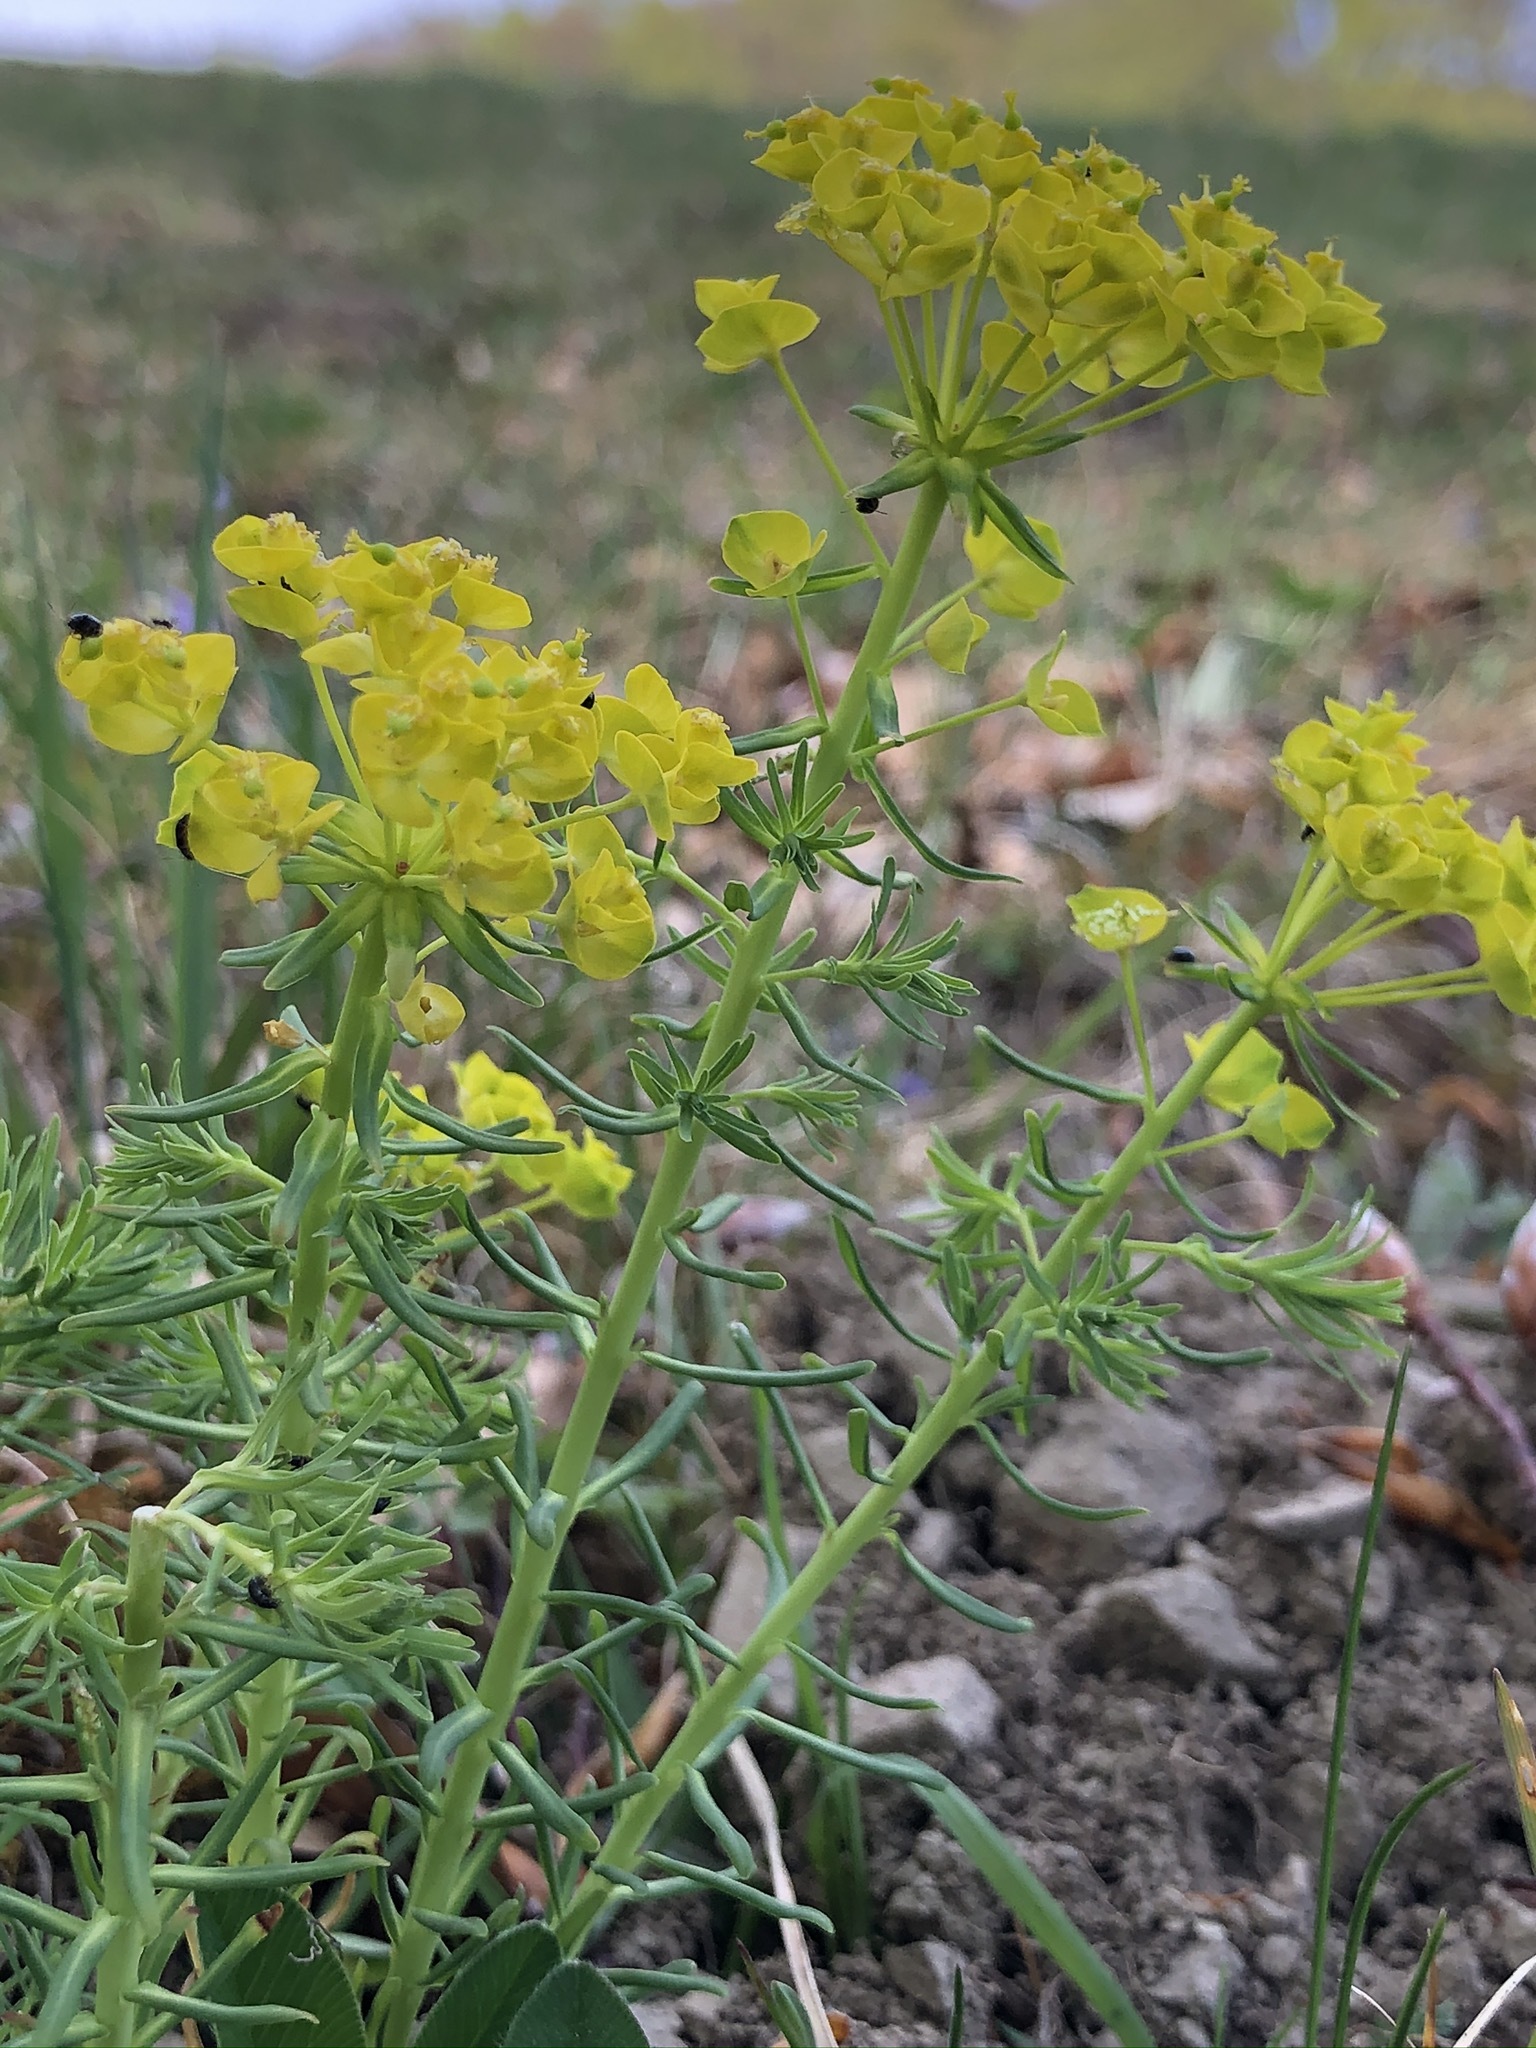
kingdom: Plantae
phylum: Tracheophyta
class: Magnoliopsida
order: Malpighiales
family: Euphorbiaceae
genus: Euphorbia
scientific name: Euphorbia cyparissias
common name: Cypress spurge
